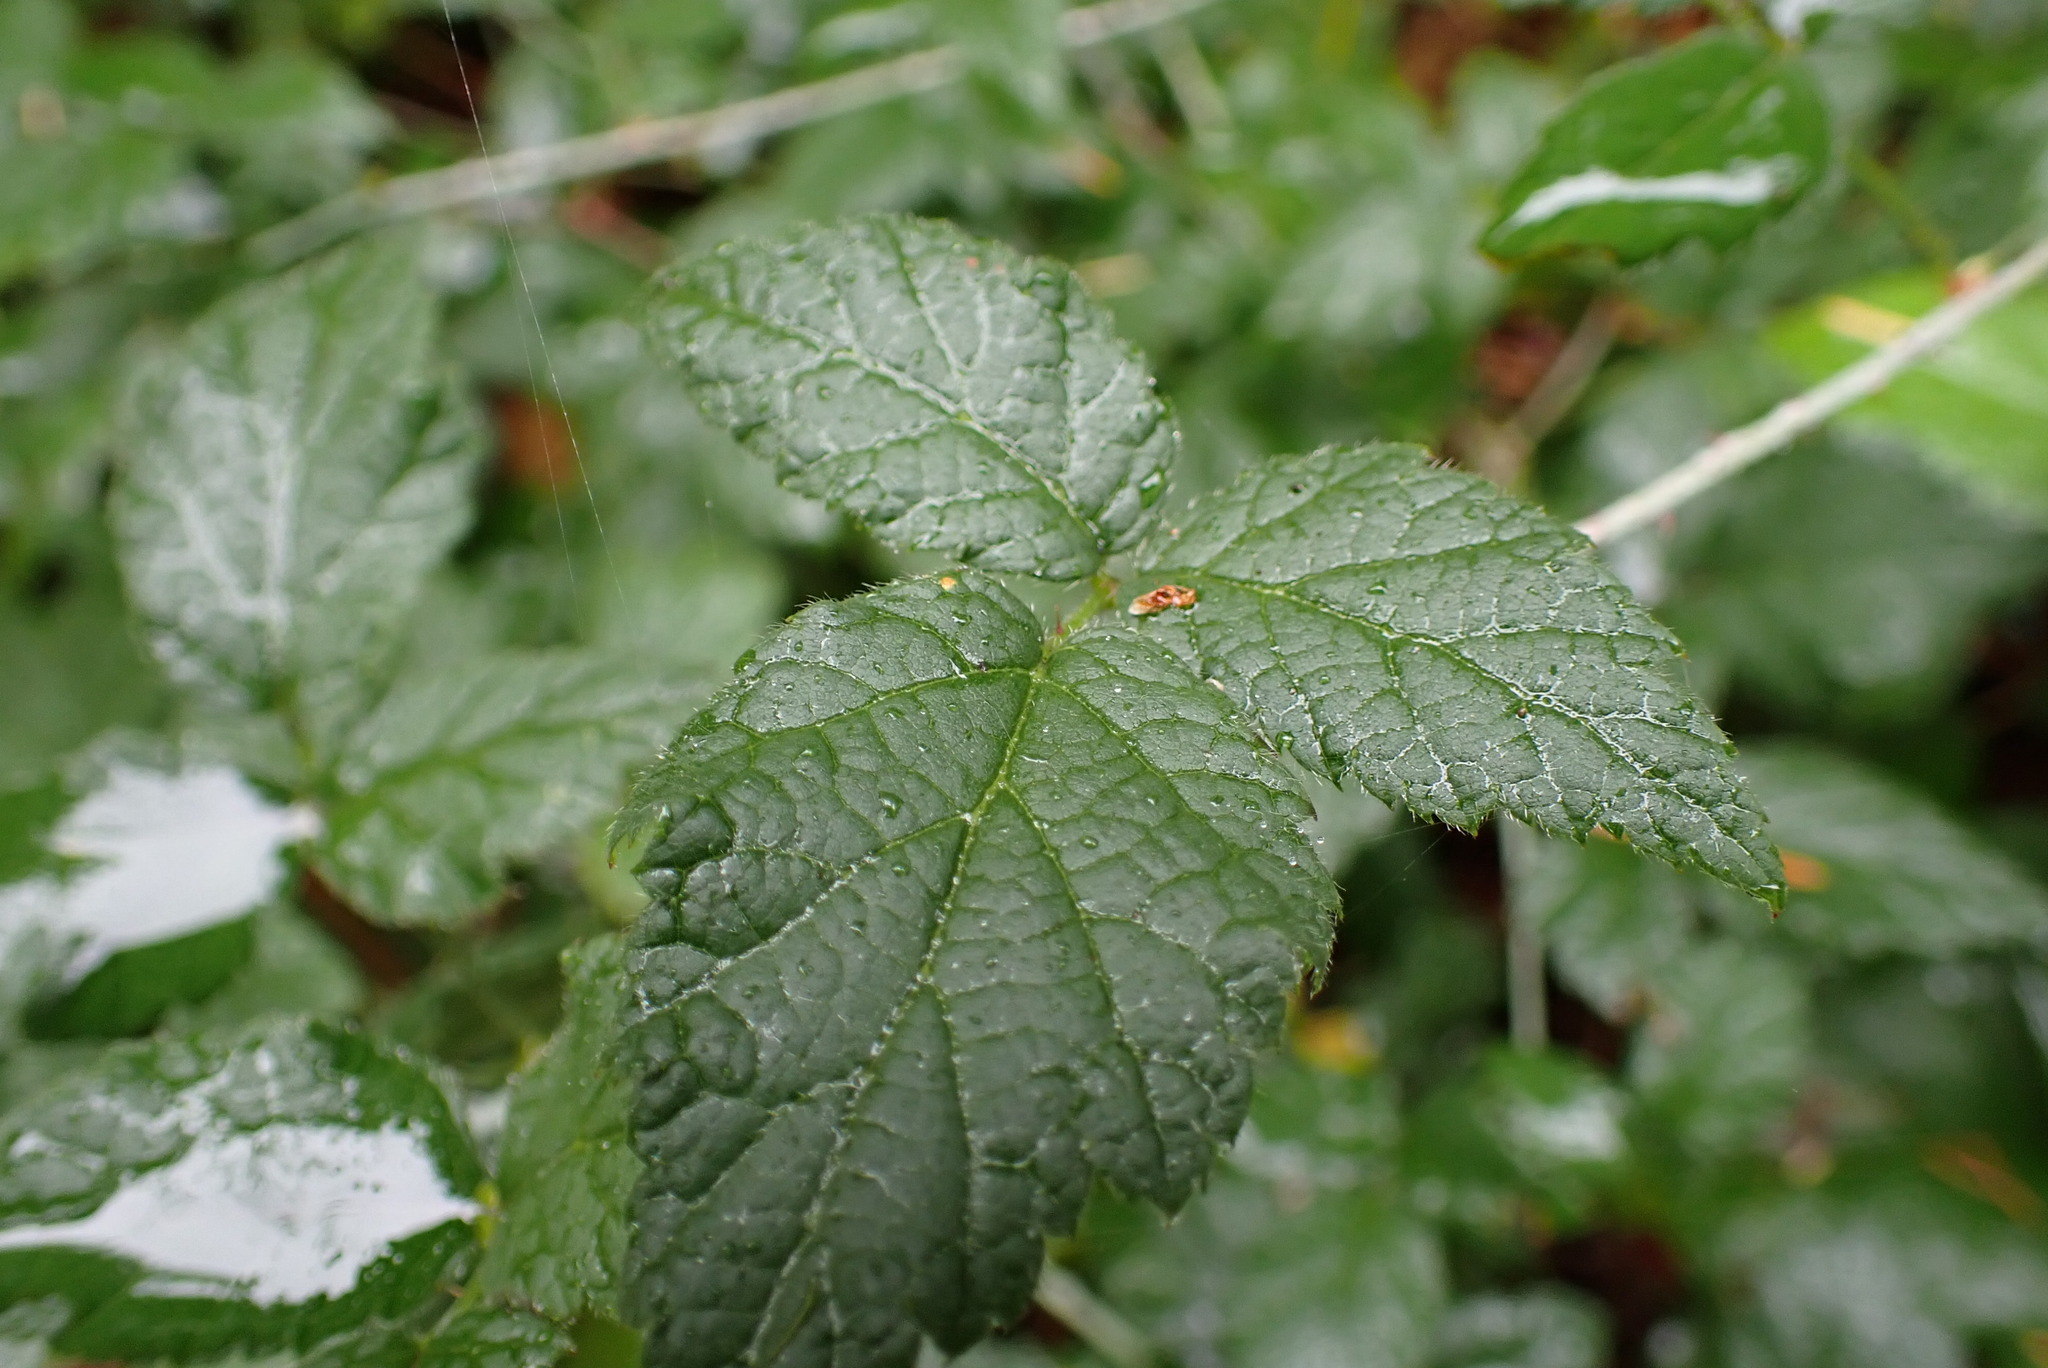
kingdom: Plantae
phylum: Tracheophyta
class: Magnoliopsida
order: Rosales
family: Rosaceae
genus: Rubus
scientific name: Rubus spectabilis
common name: Salmonberry
